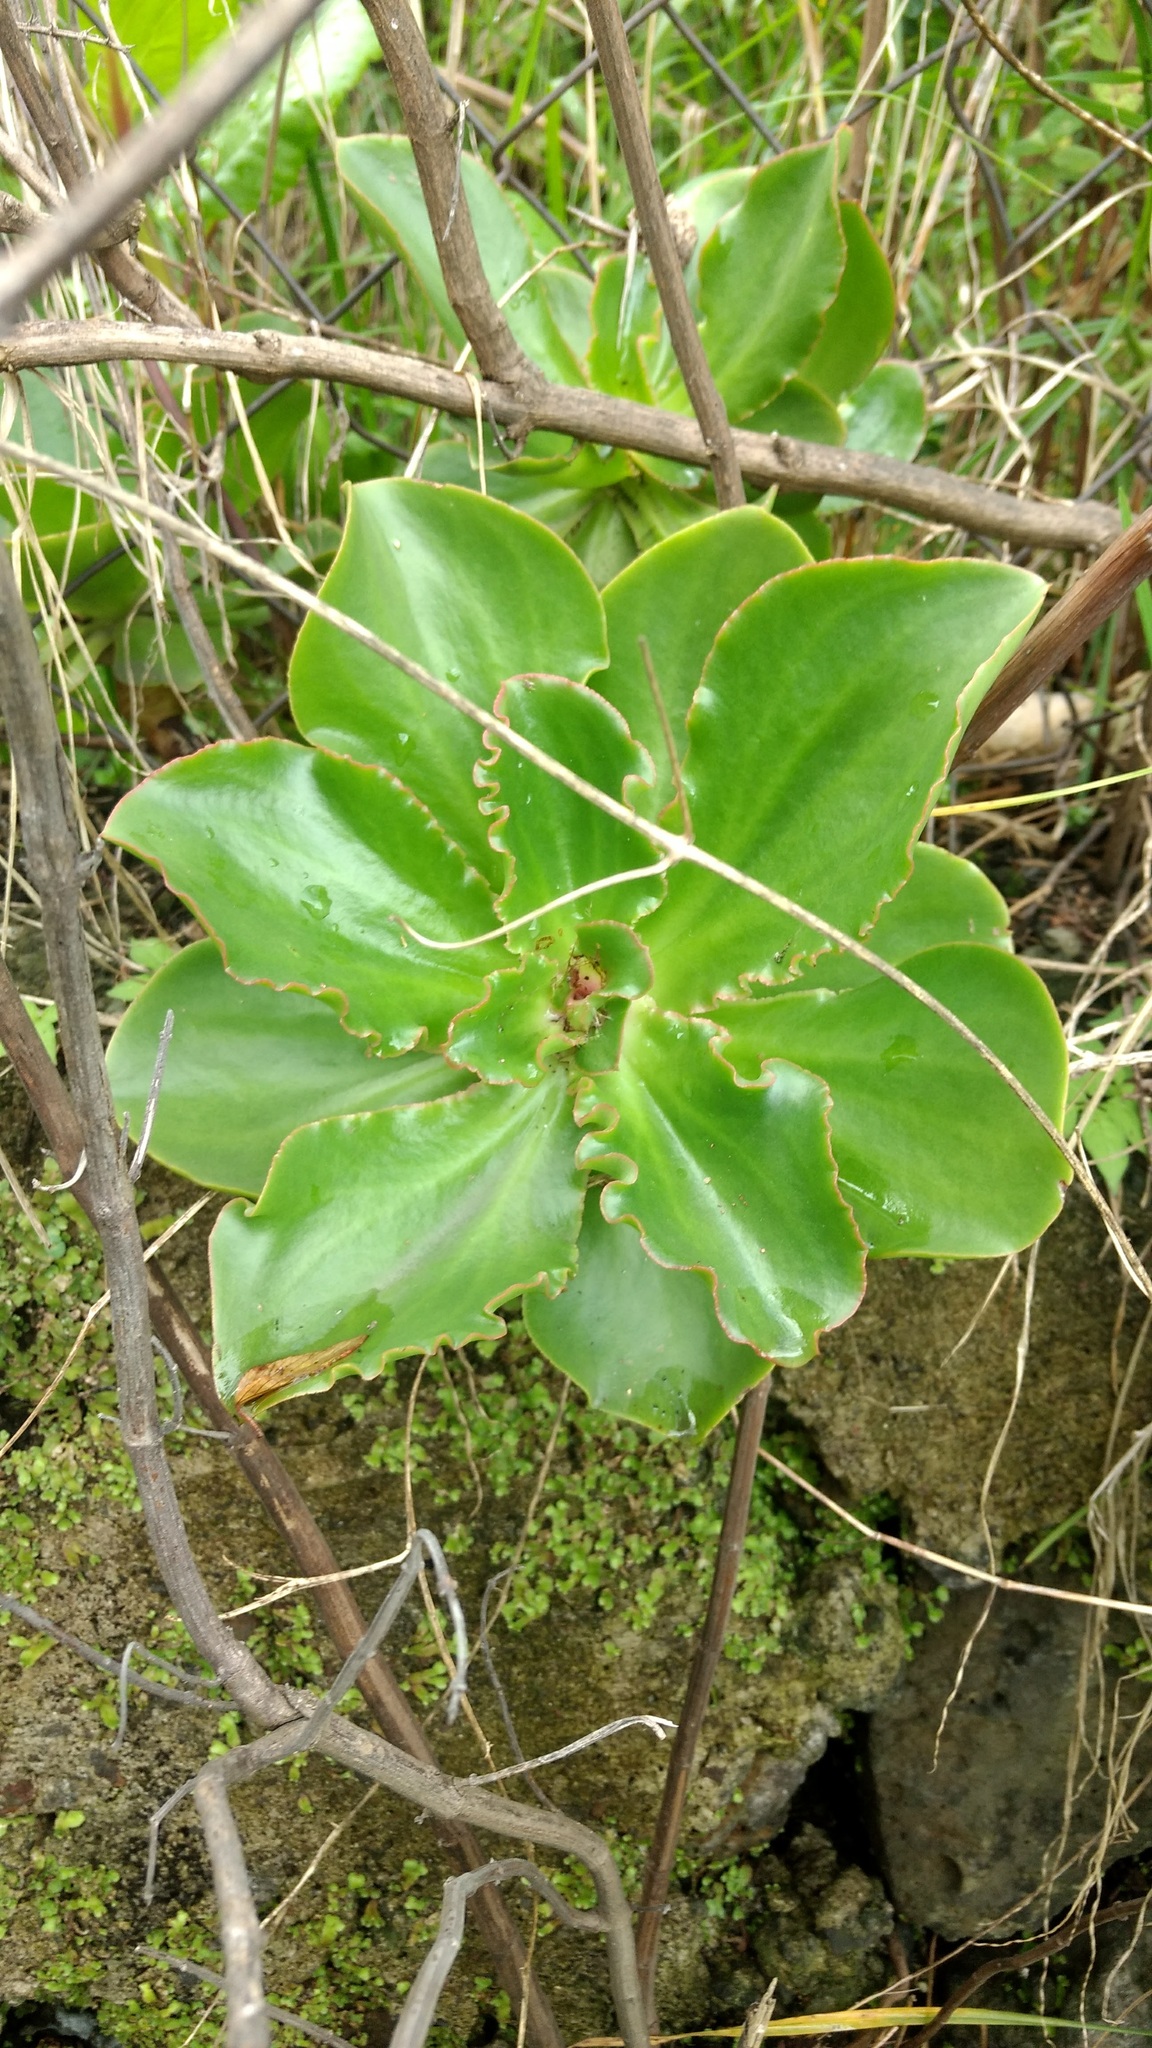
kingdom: Plantae
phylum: Tracheophyta
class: Magnoliopsida
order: Saxifragales
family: Crassulaceae
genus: Echeveria
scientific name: Echeveria fulgens
